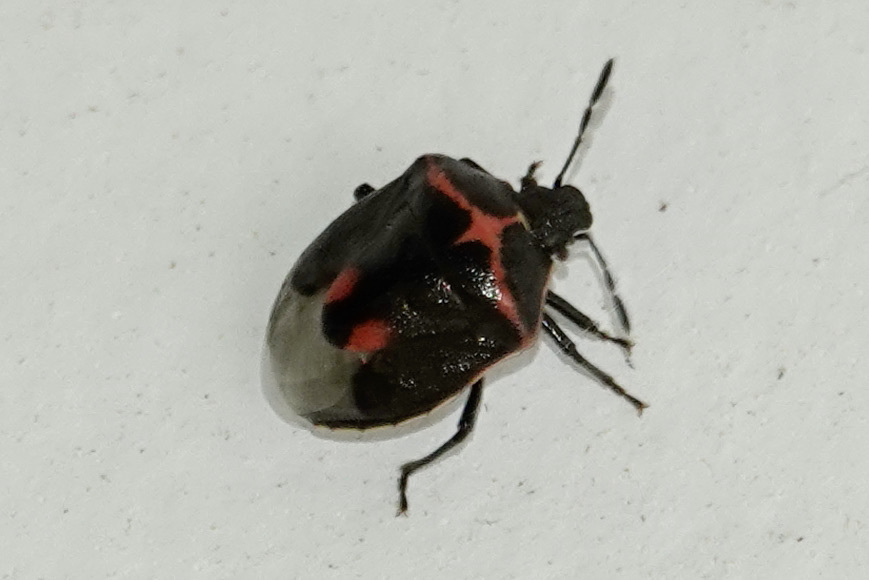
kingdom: Animalia
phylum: Arthropoda
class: Insecta
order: Hemiptera
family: Pentatomidae
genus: Cosmopepla
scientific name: Cosmopepla lintneriana
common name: Twice-stabbed stink bug
